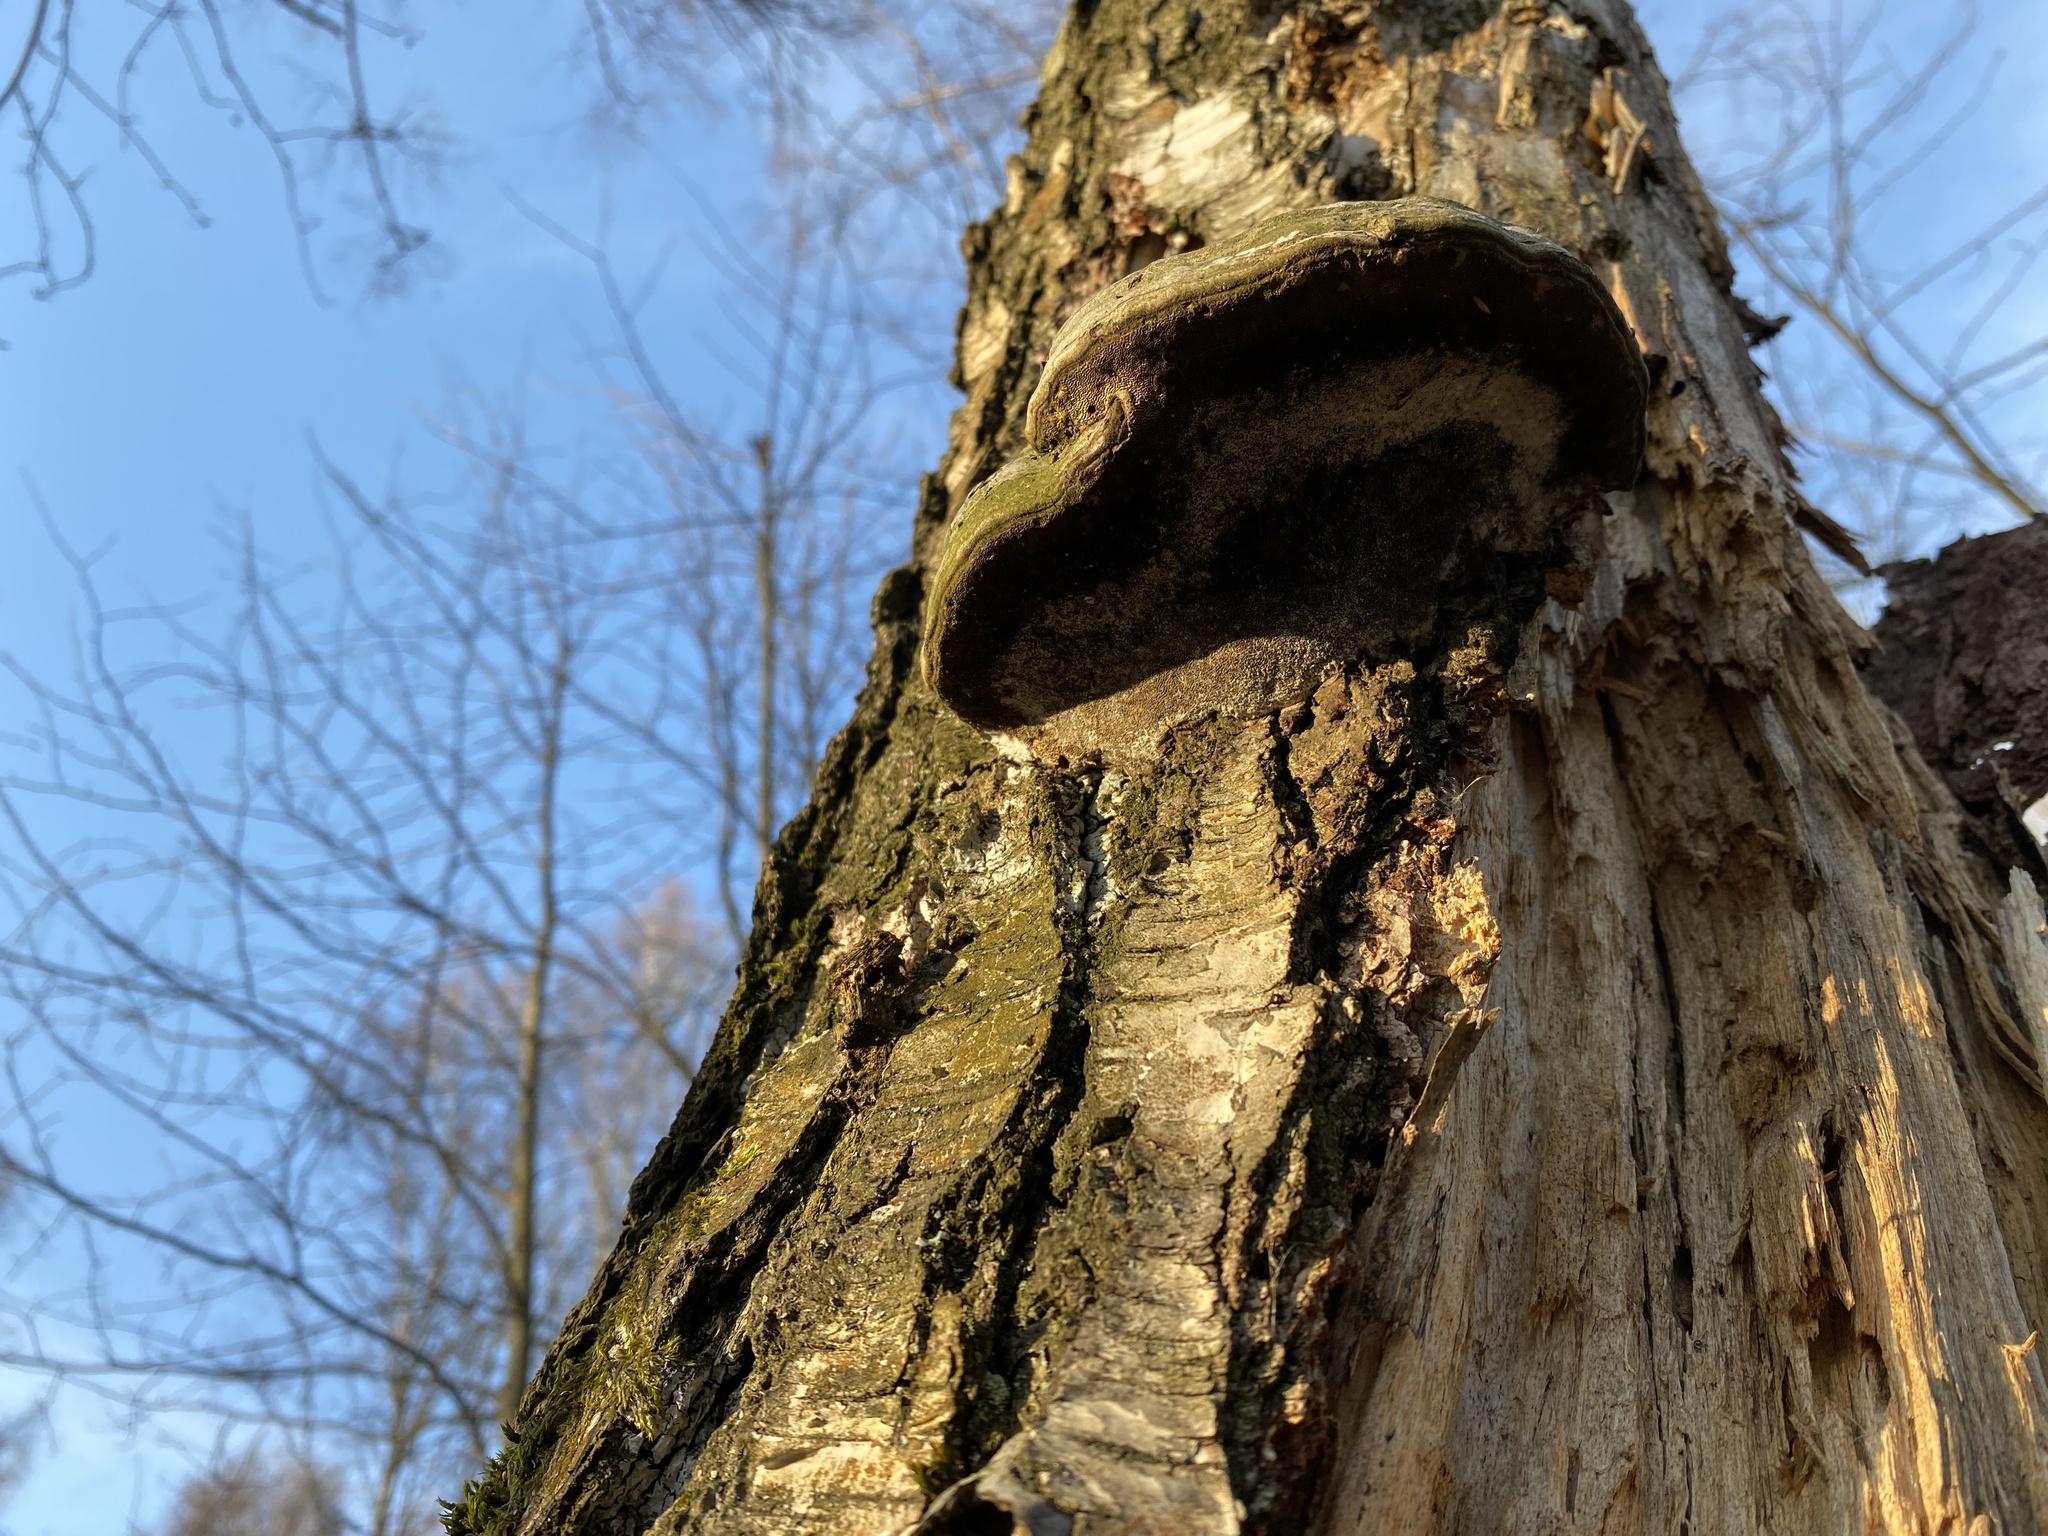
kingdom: Fungi
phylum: Basidiomycota
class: Agaricomycetes
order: Polyporales
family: Polyporaceae
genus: Fomes
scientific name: Fomes fomentarius
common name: Hoof fungus
